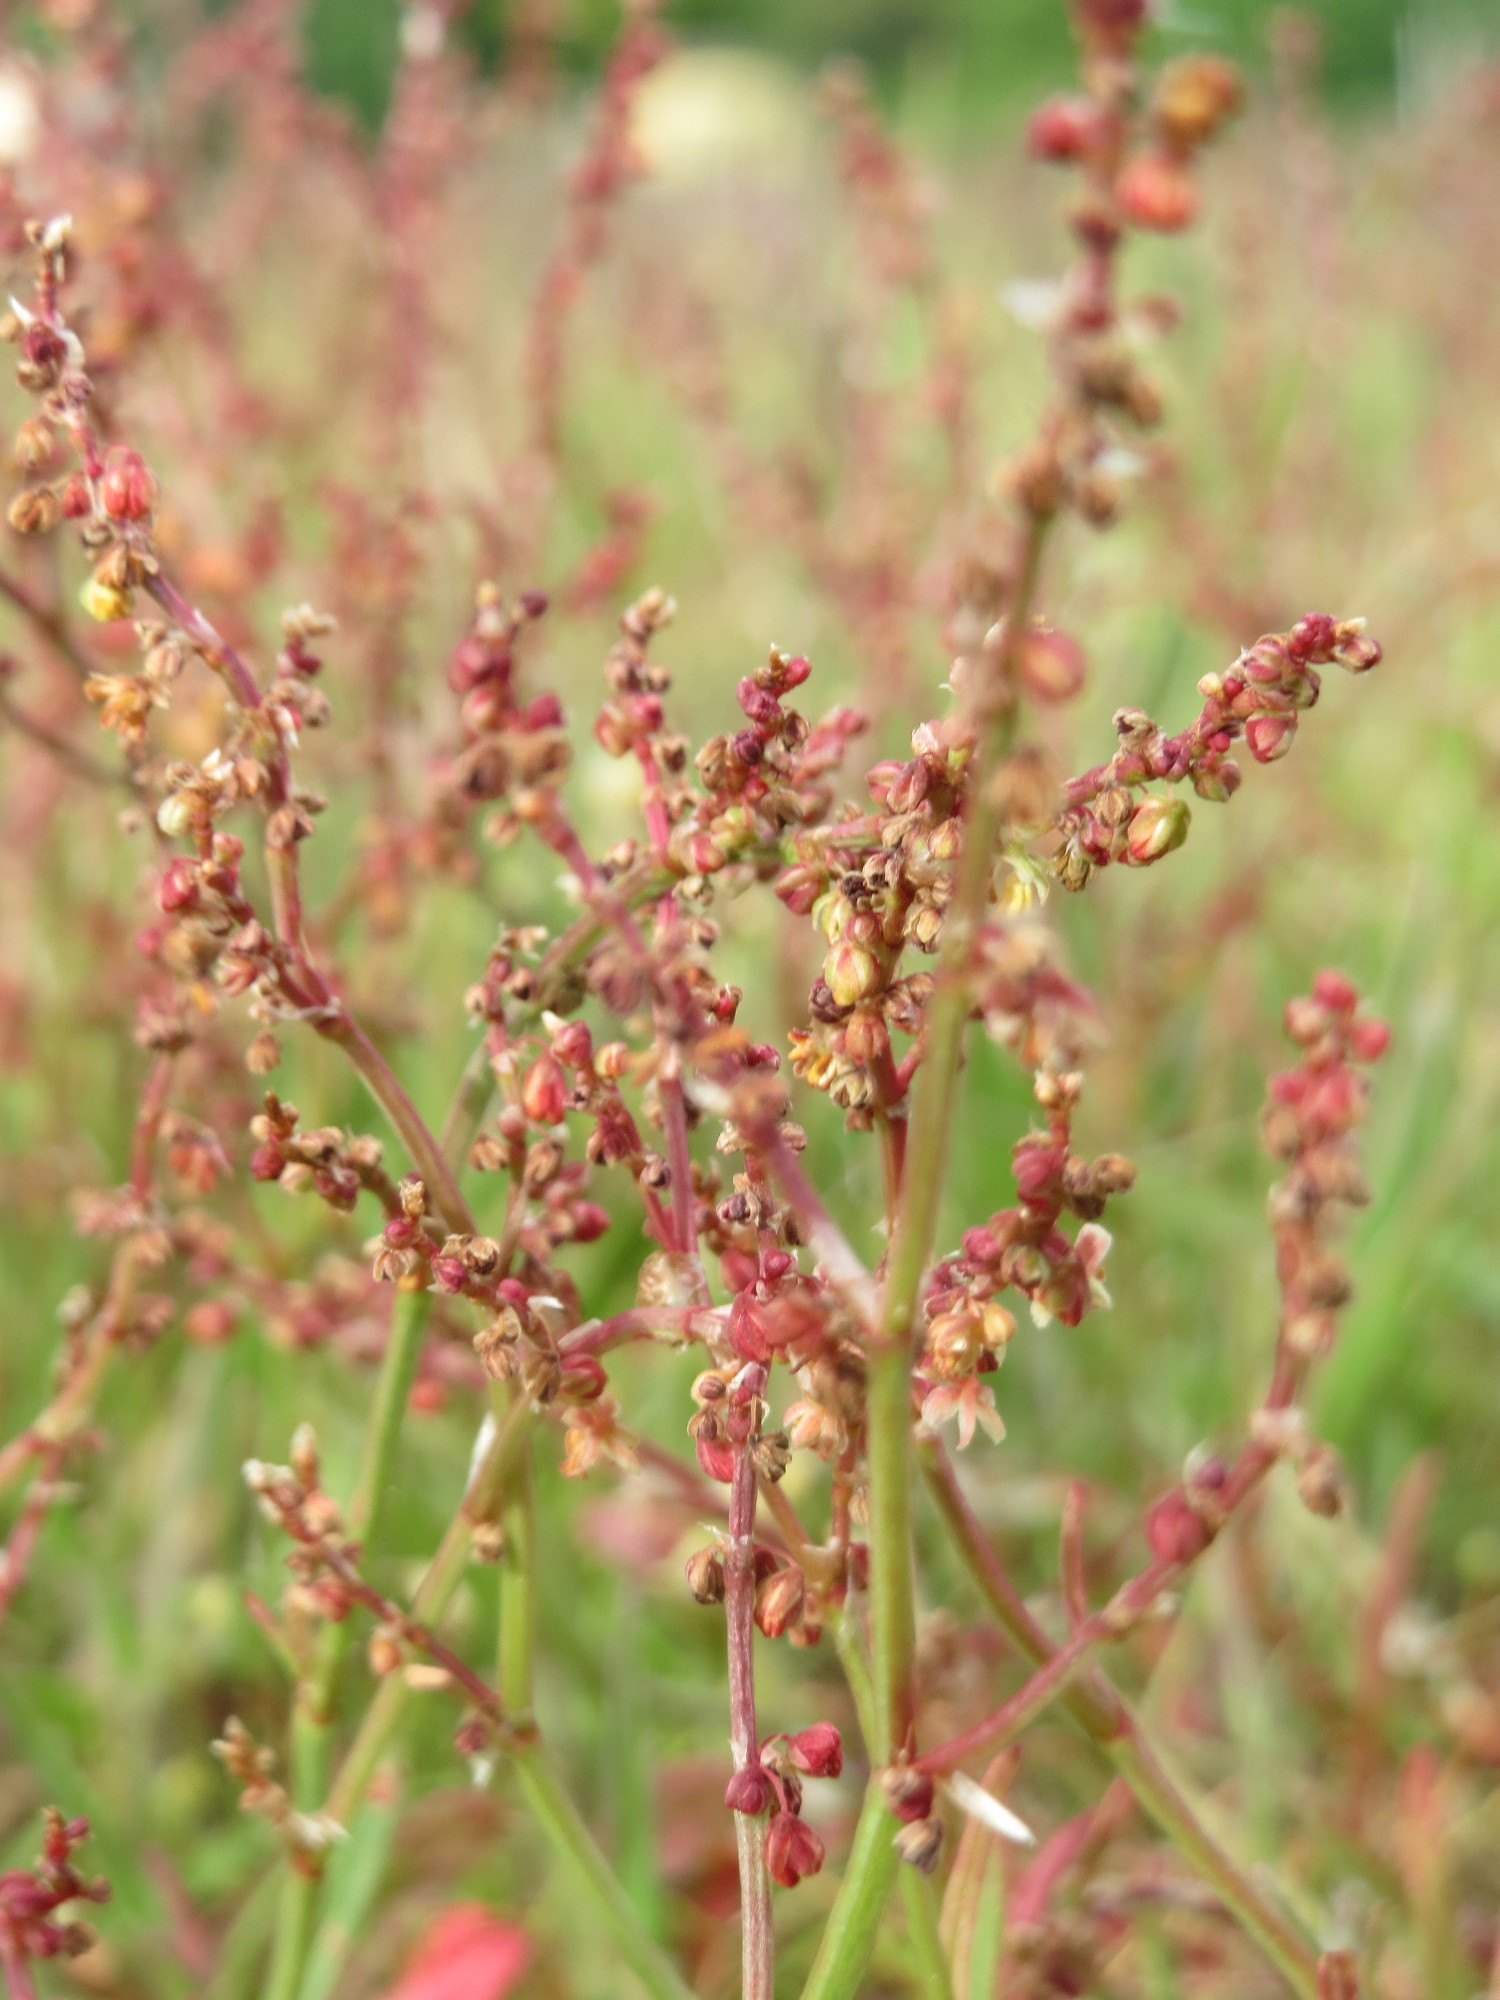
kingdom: Plantae
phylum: Tracheophyta
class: Magnoliopsida
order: Caryophyllales
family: Polygonaceae
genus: Rumex
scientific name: Rumex acetosella
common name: Common sheep sorrel
